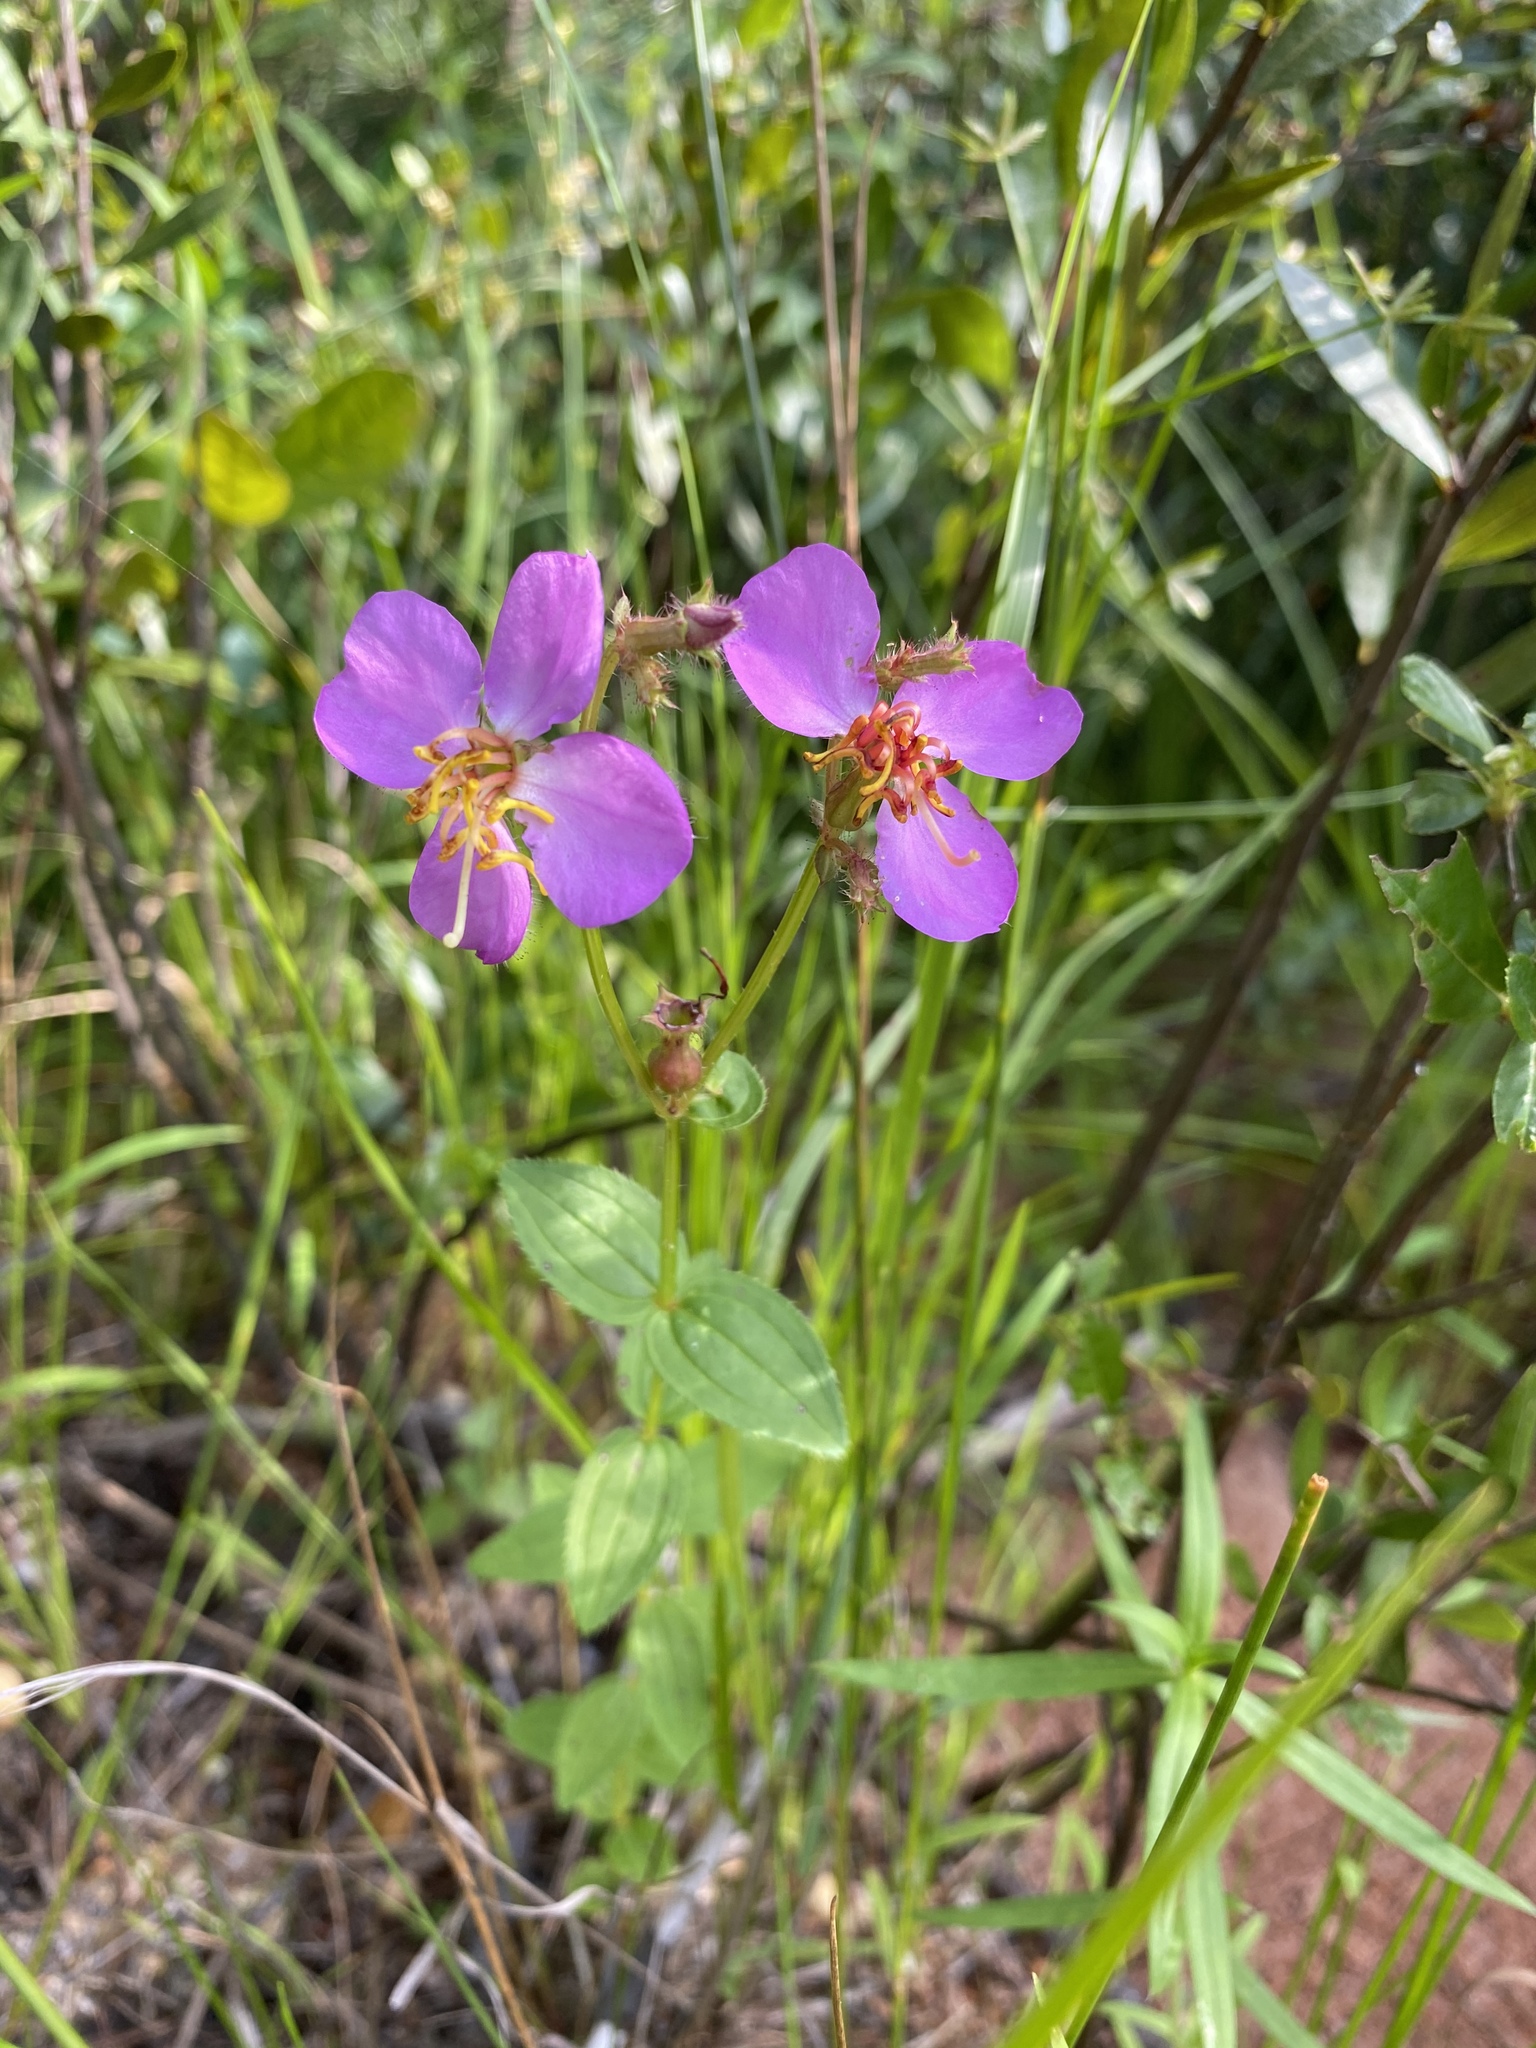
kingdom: Plantae
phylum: Tracheophyta
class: Magnoliopsida
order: Myrtales
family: Melastomataceae
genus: Rhexia
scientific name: Rhexia virginica
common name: Common meadow beauty
